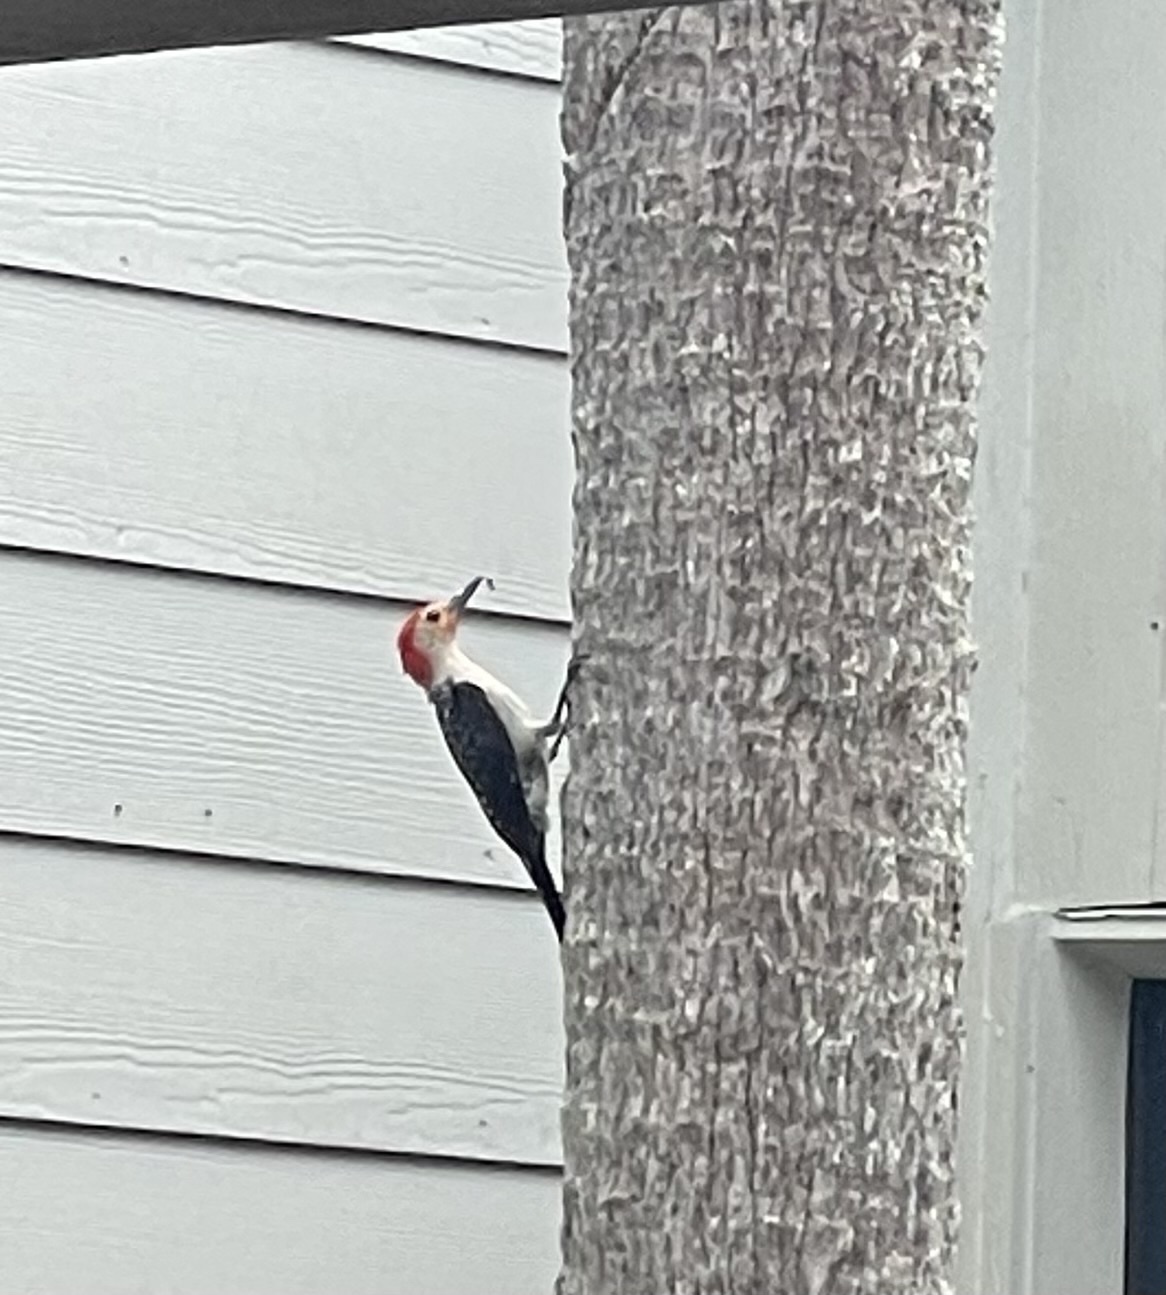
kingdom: Animalia
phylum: Chordata
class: Aves
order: Piciformes
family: Picidae
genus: Melanerpes
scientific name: Melanerpes carolinus
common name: Red-bellied woodpecker
